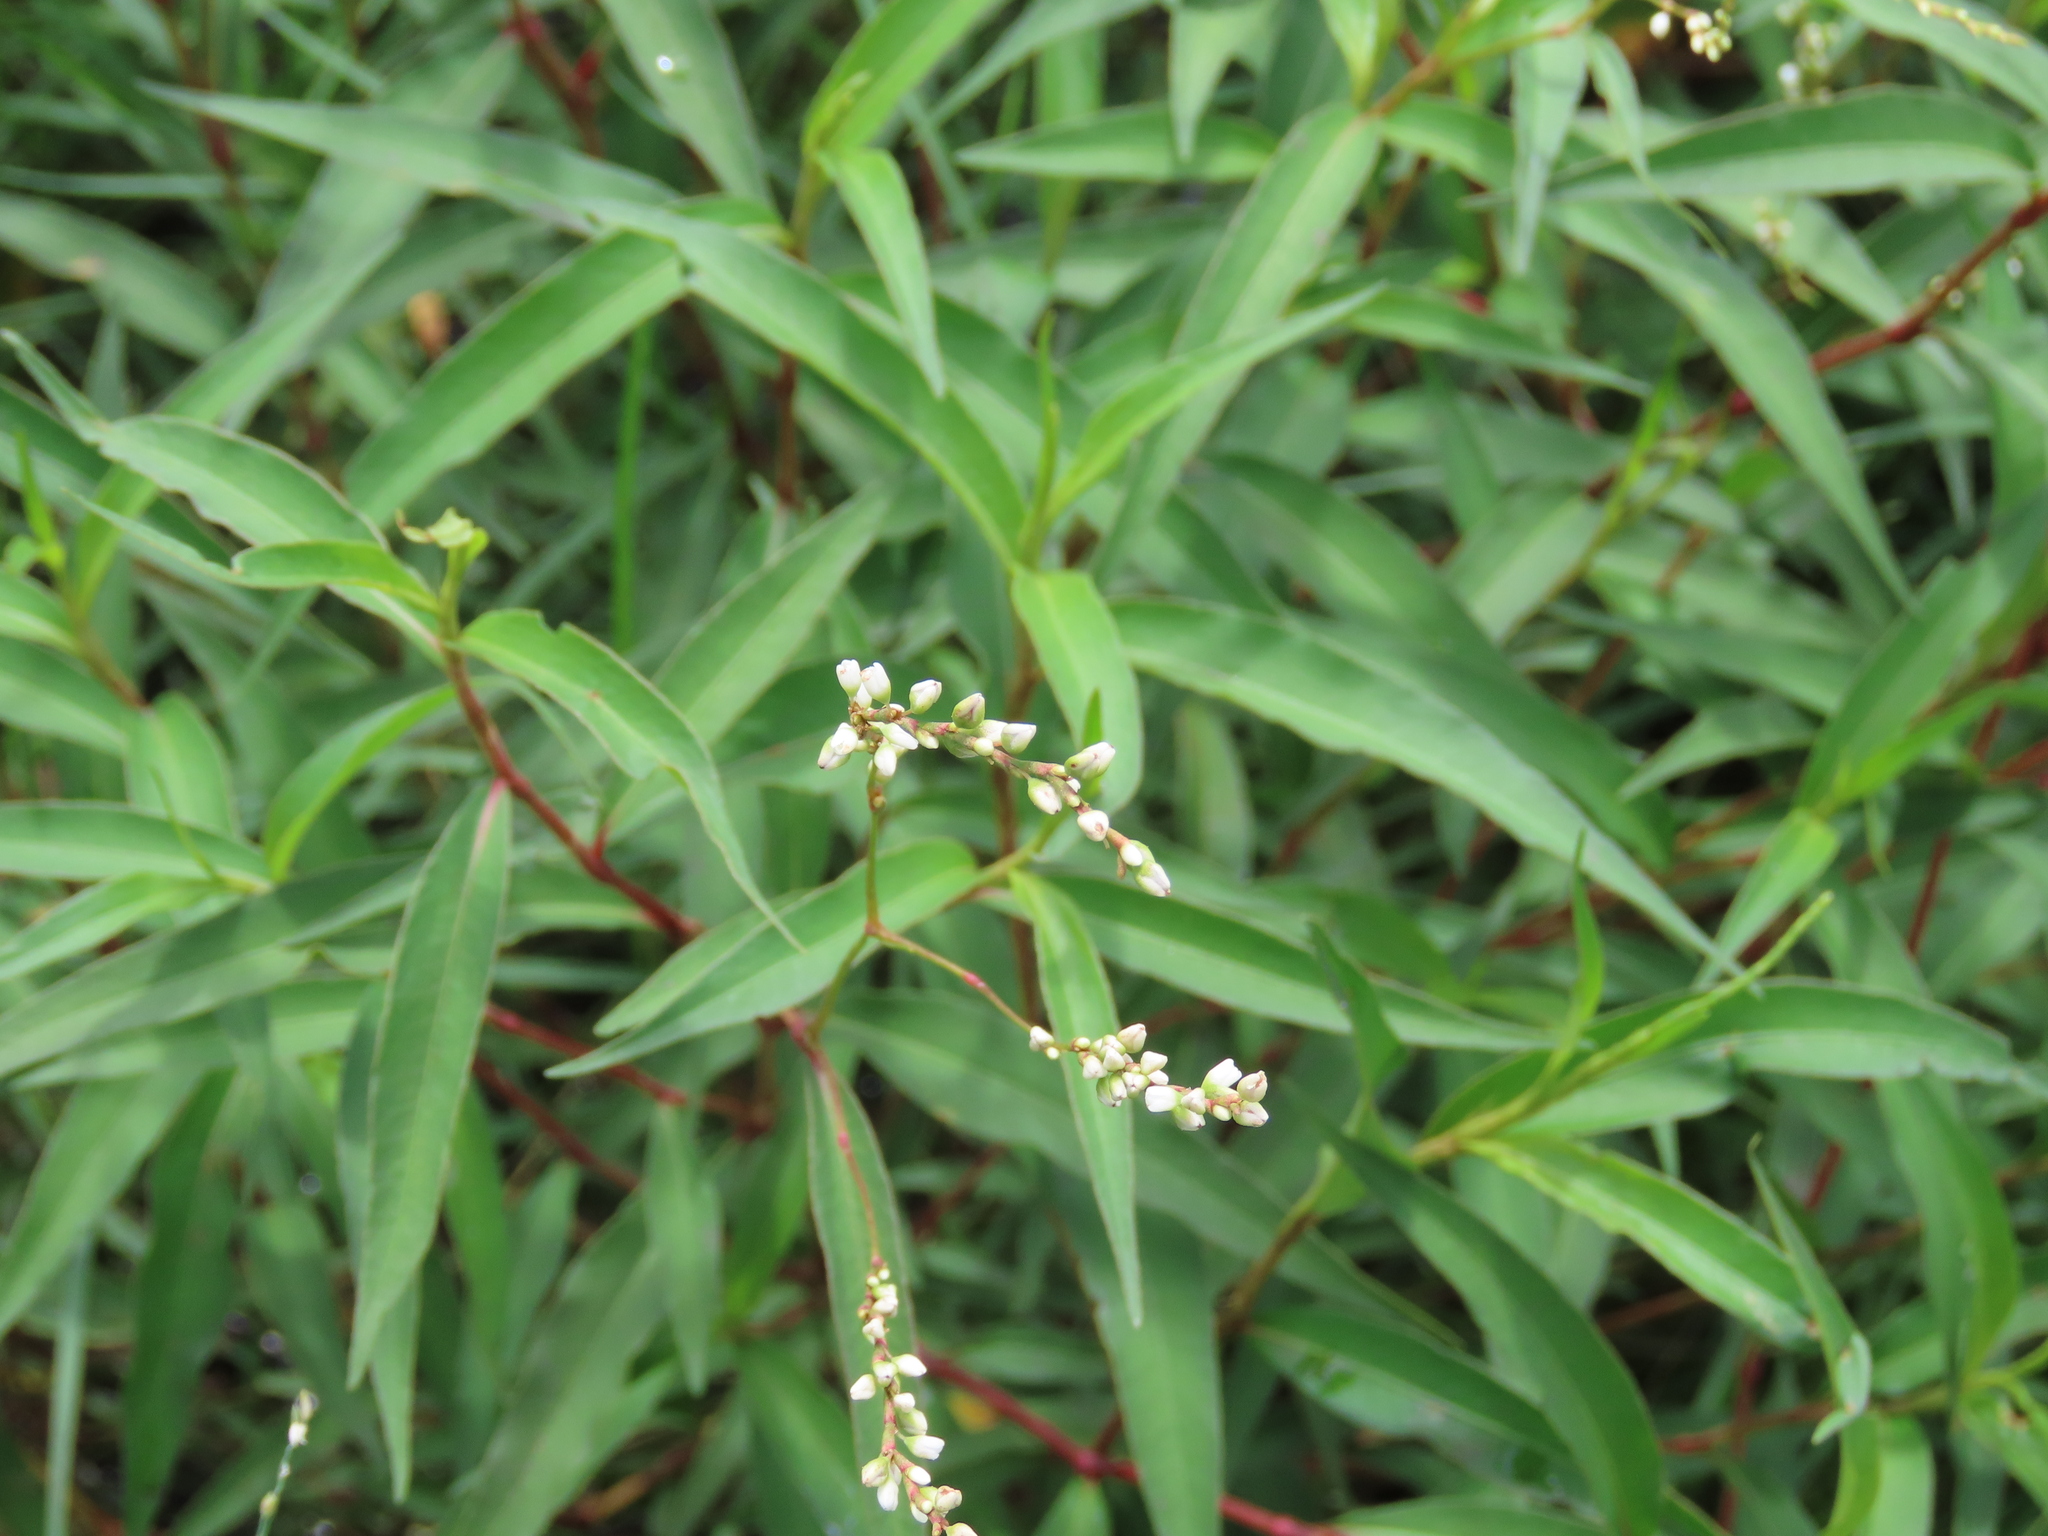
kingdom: Plantae
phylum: Tracheophyta
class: Magnoliopsida
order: Caryophyllales
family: Polygonaceae
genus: Persicaria
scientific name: Persicaria punctata
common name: Dotted smartweed
